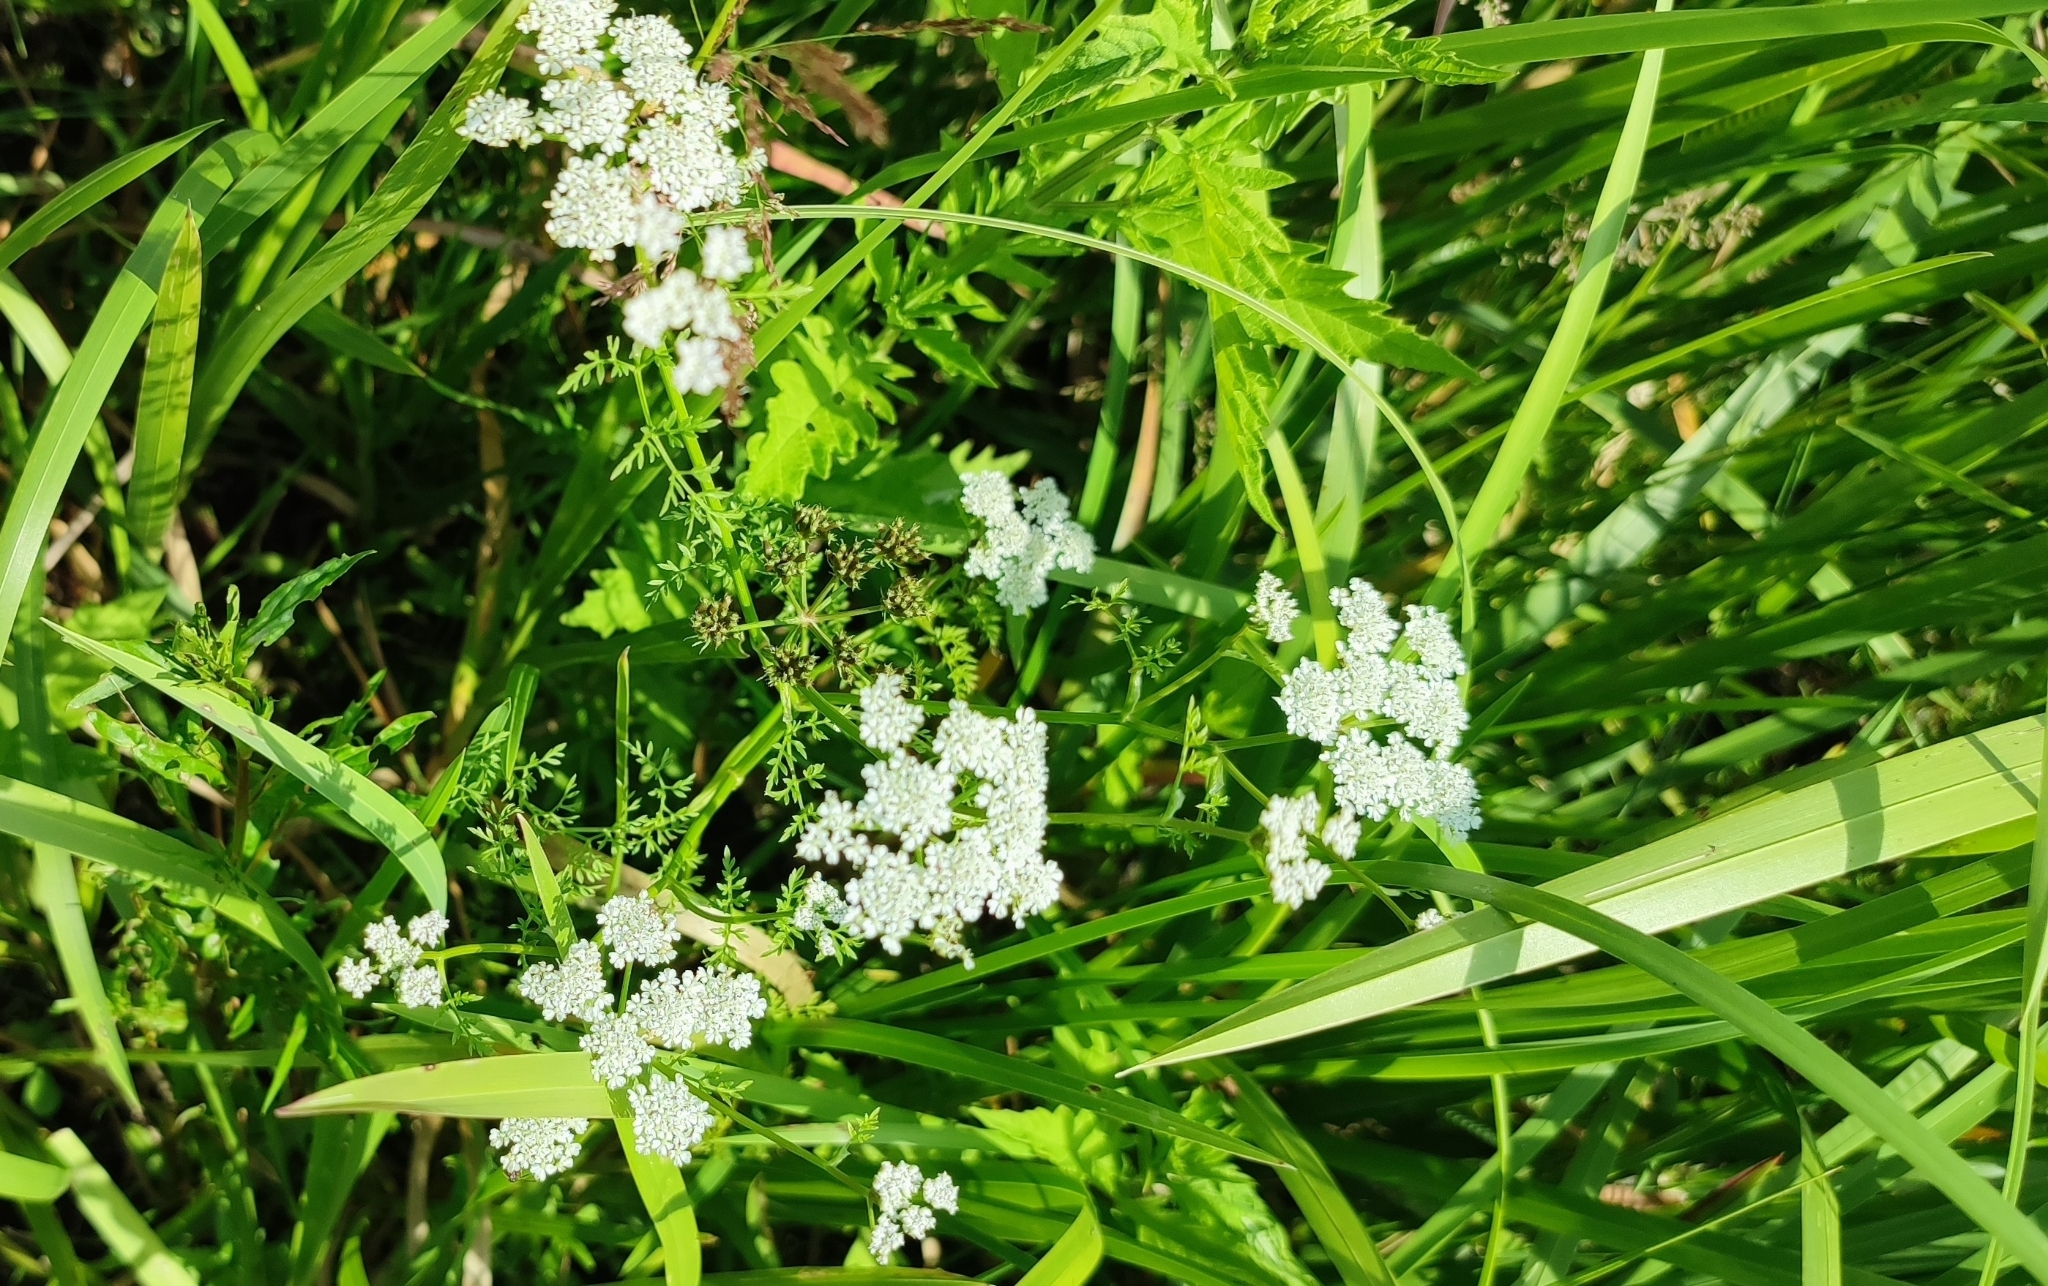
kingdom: Plantae
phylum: Tracheophyta
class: Magnoliopsida
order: Apiales
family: Apiaceae
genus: Oenanthe
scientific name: Oenanthe aquatica
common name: Fine-leaved water-dropwort
